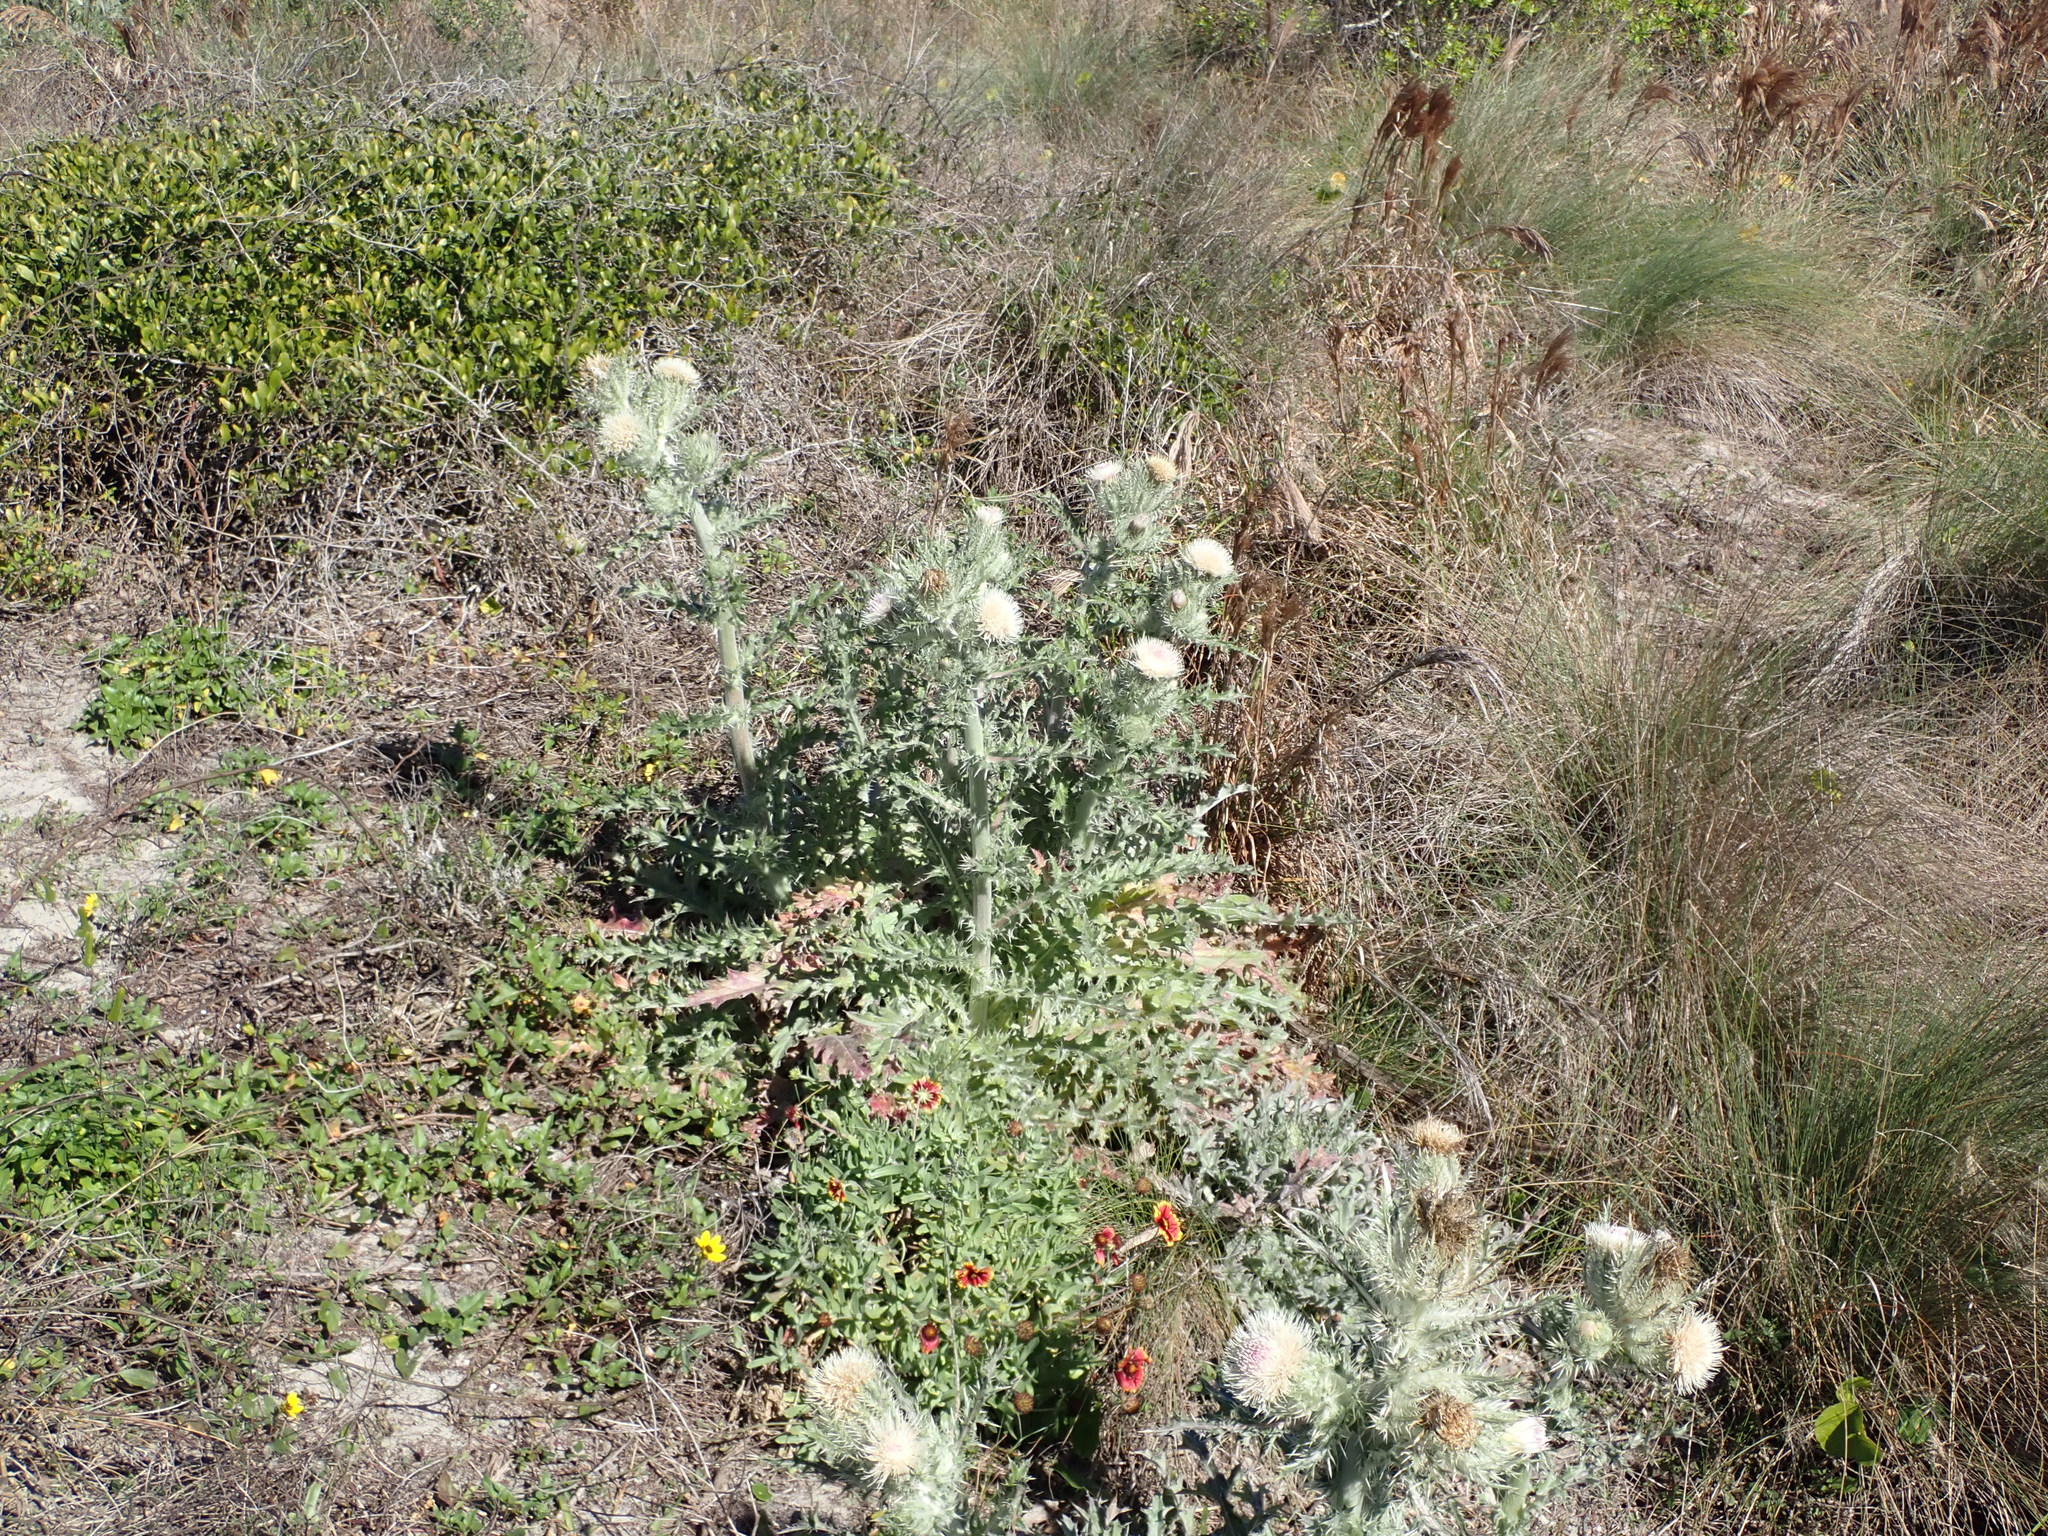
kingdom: Plantae
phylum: Tracheophyta
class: Magnoliopsida
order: Asterales
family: Asteraceae
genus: Cirsium
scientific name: Cirsium horridulum
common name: Bristly thistle
